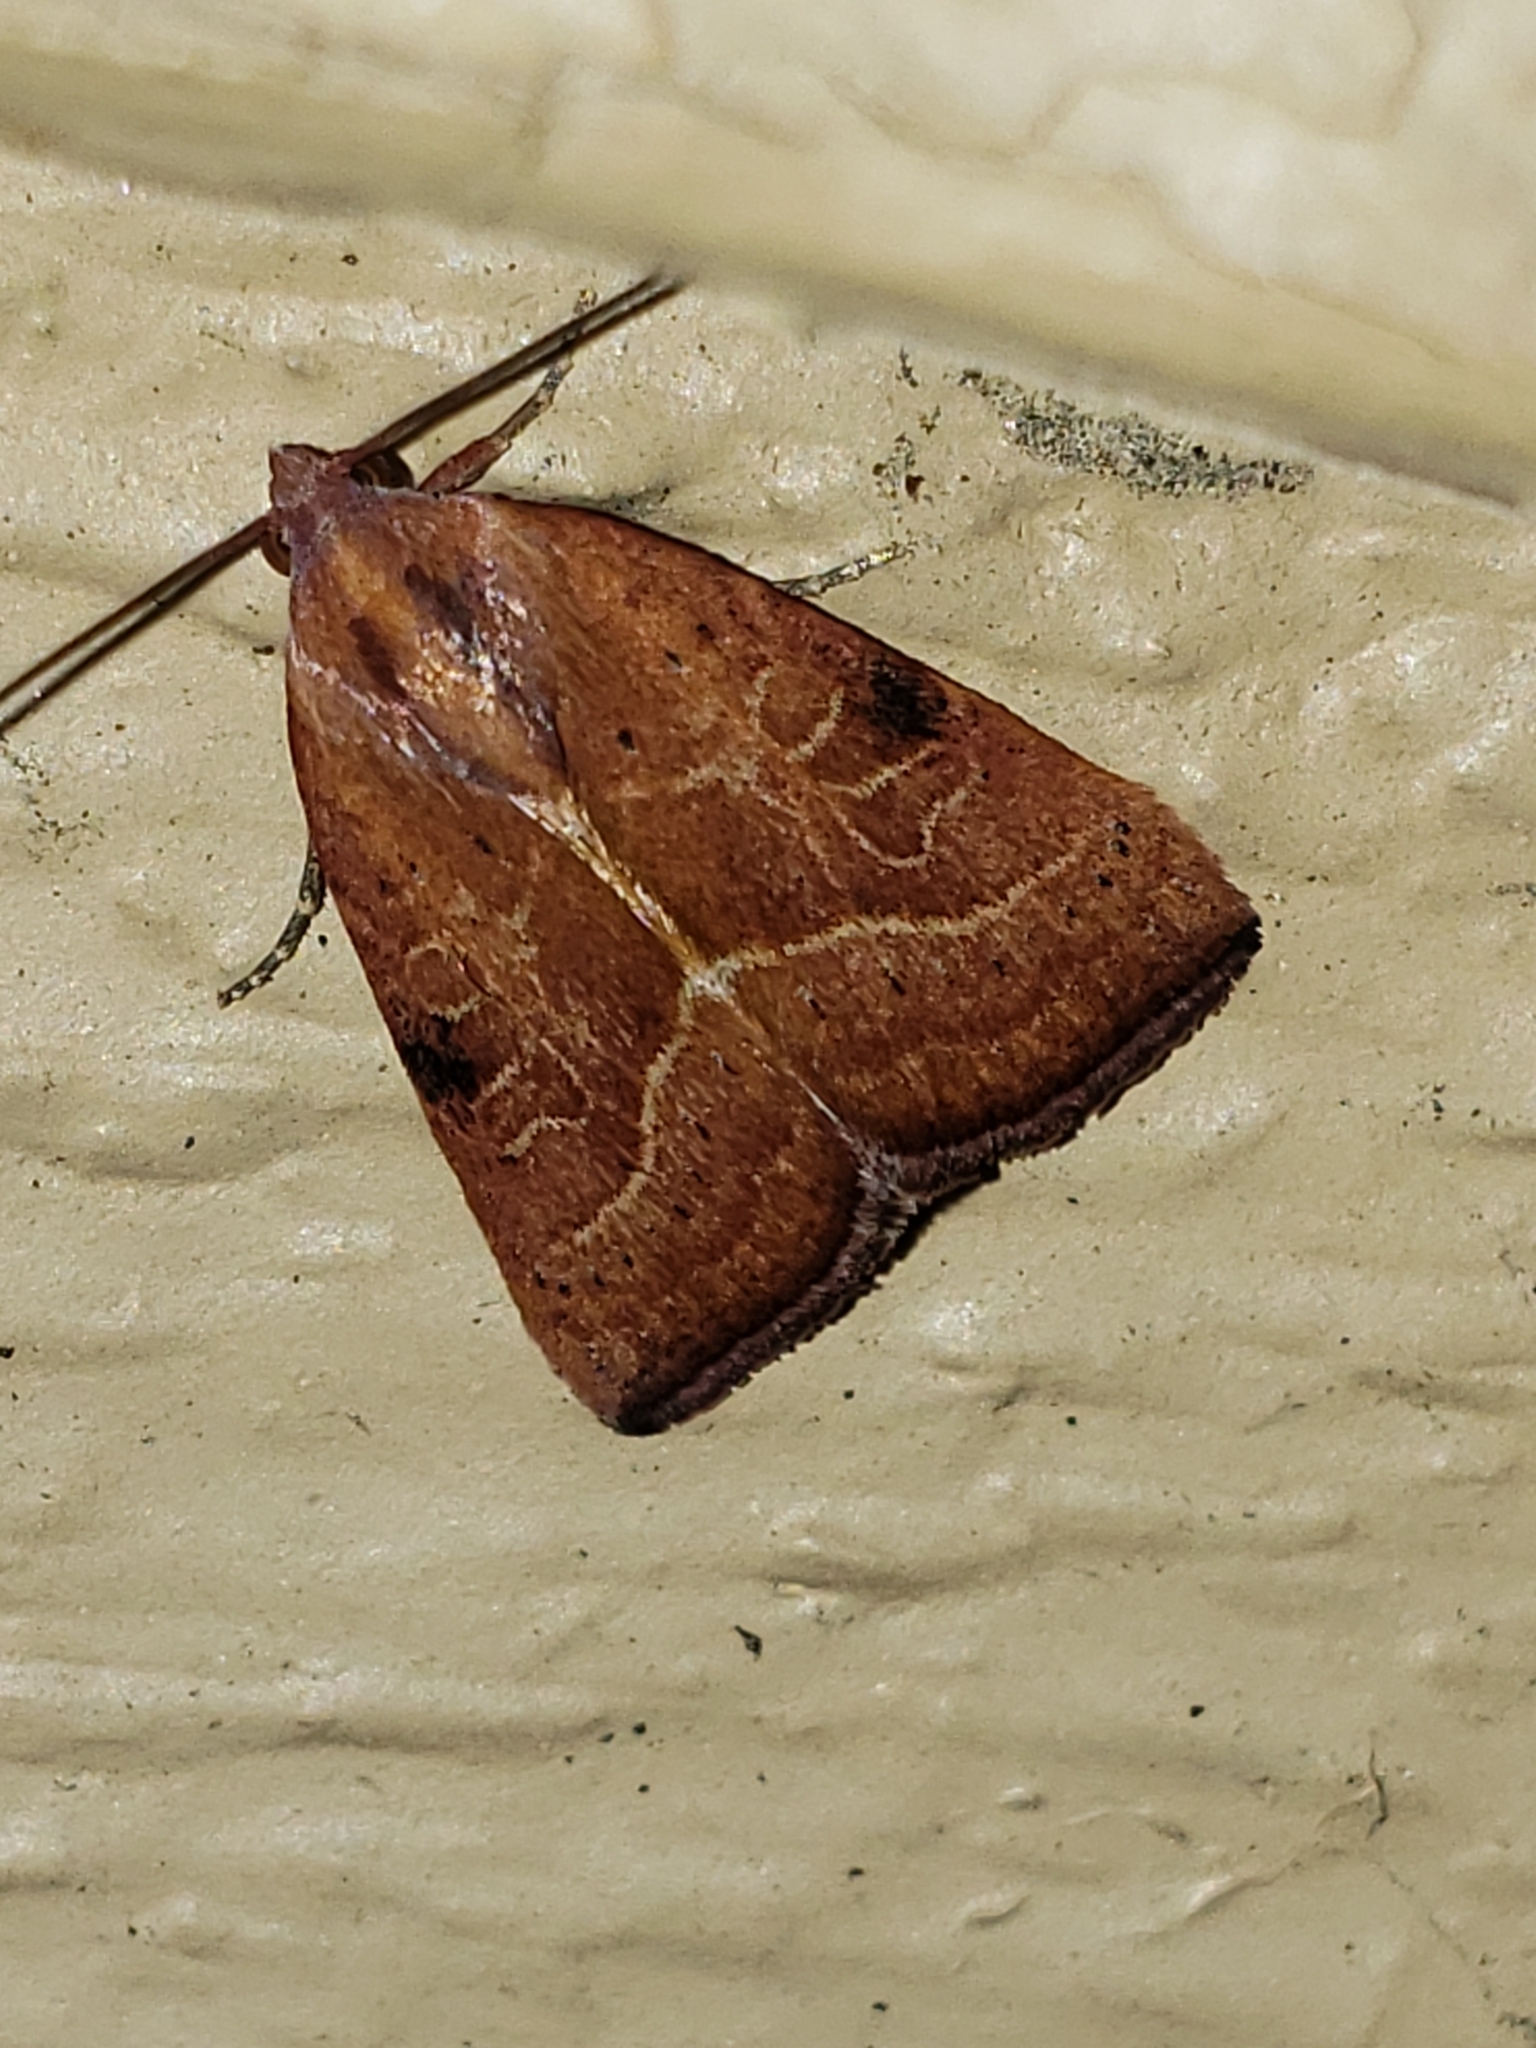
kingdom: Animalia
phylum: Arthropoda
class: Insecta
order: Lepidoptera
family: Noctuidae
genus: Galgula
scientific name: Galgula partita
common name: Wedgeling
